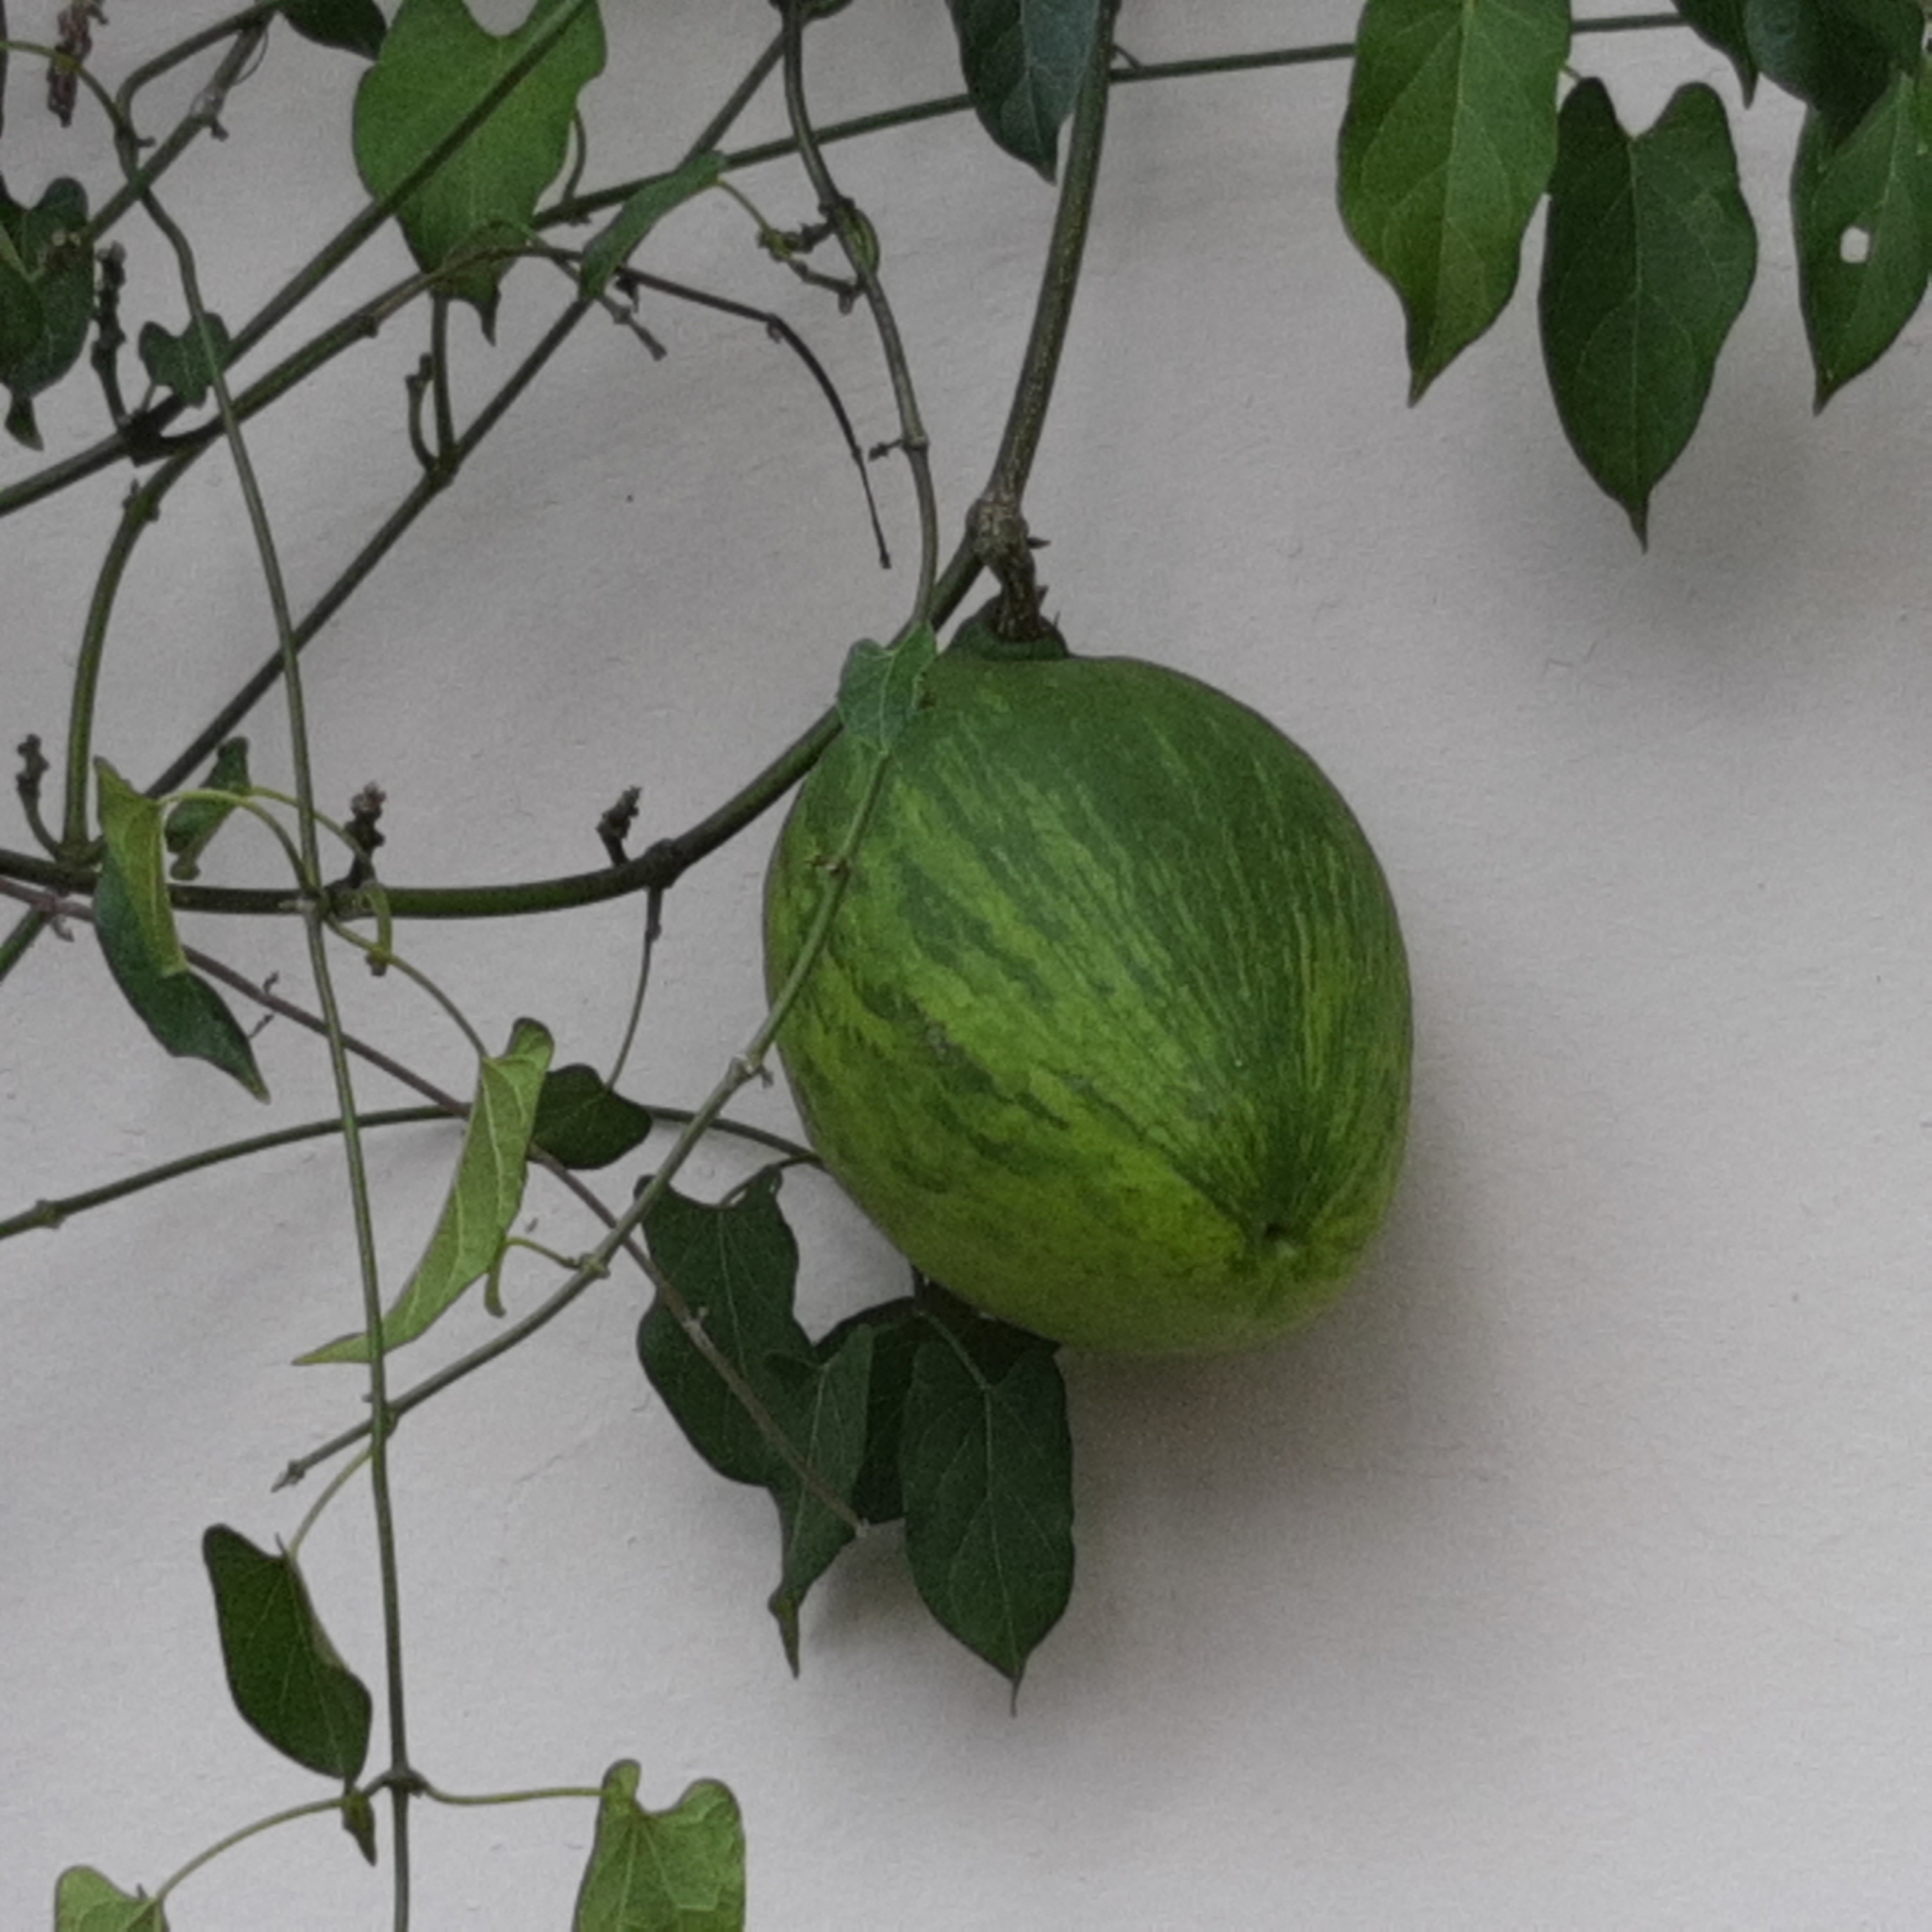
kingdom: Plantae
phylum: Tracheophyta
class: Magnoliopsida
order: Gentianales
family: Apocynaceae
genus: Gonolobus
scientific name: Gonolobus taylorianus
